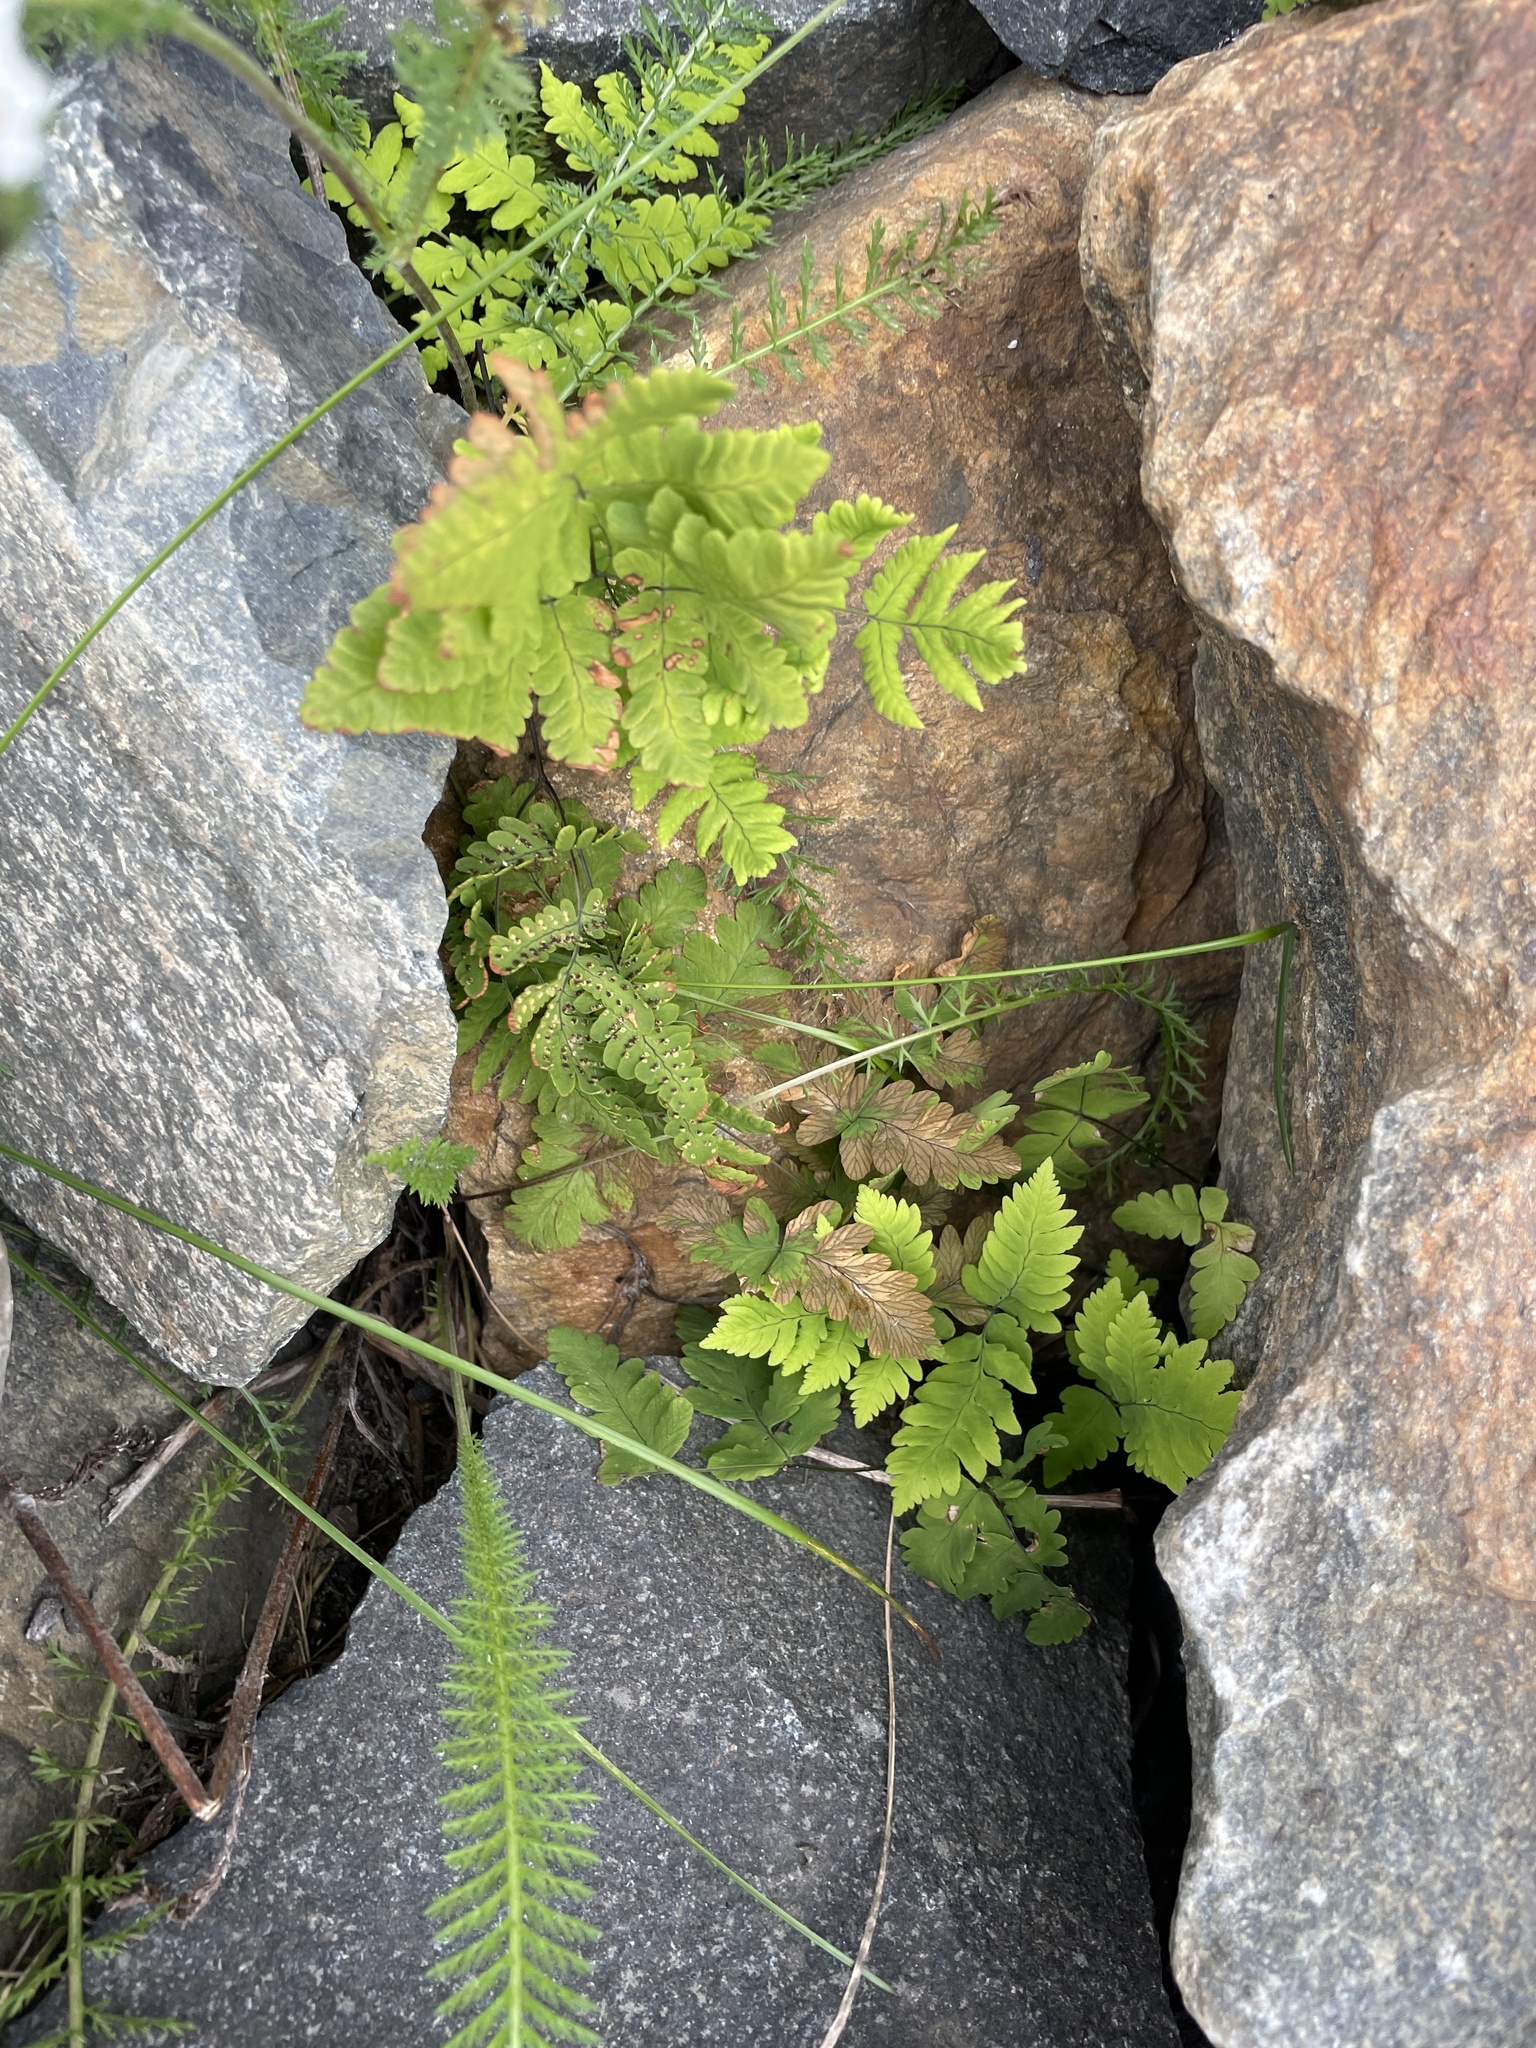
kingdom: Plantae
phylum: Tracheophyta
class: Polypodiopsida
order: Polypodiales
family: Cystopteridaceae
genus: Gymnocarpium
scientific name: Gymnocarpium dryopteris
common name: Oak fern
